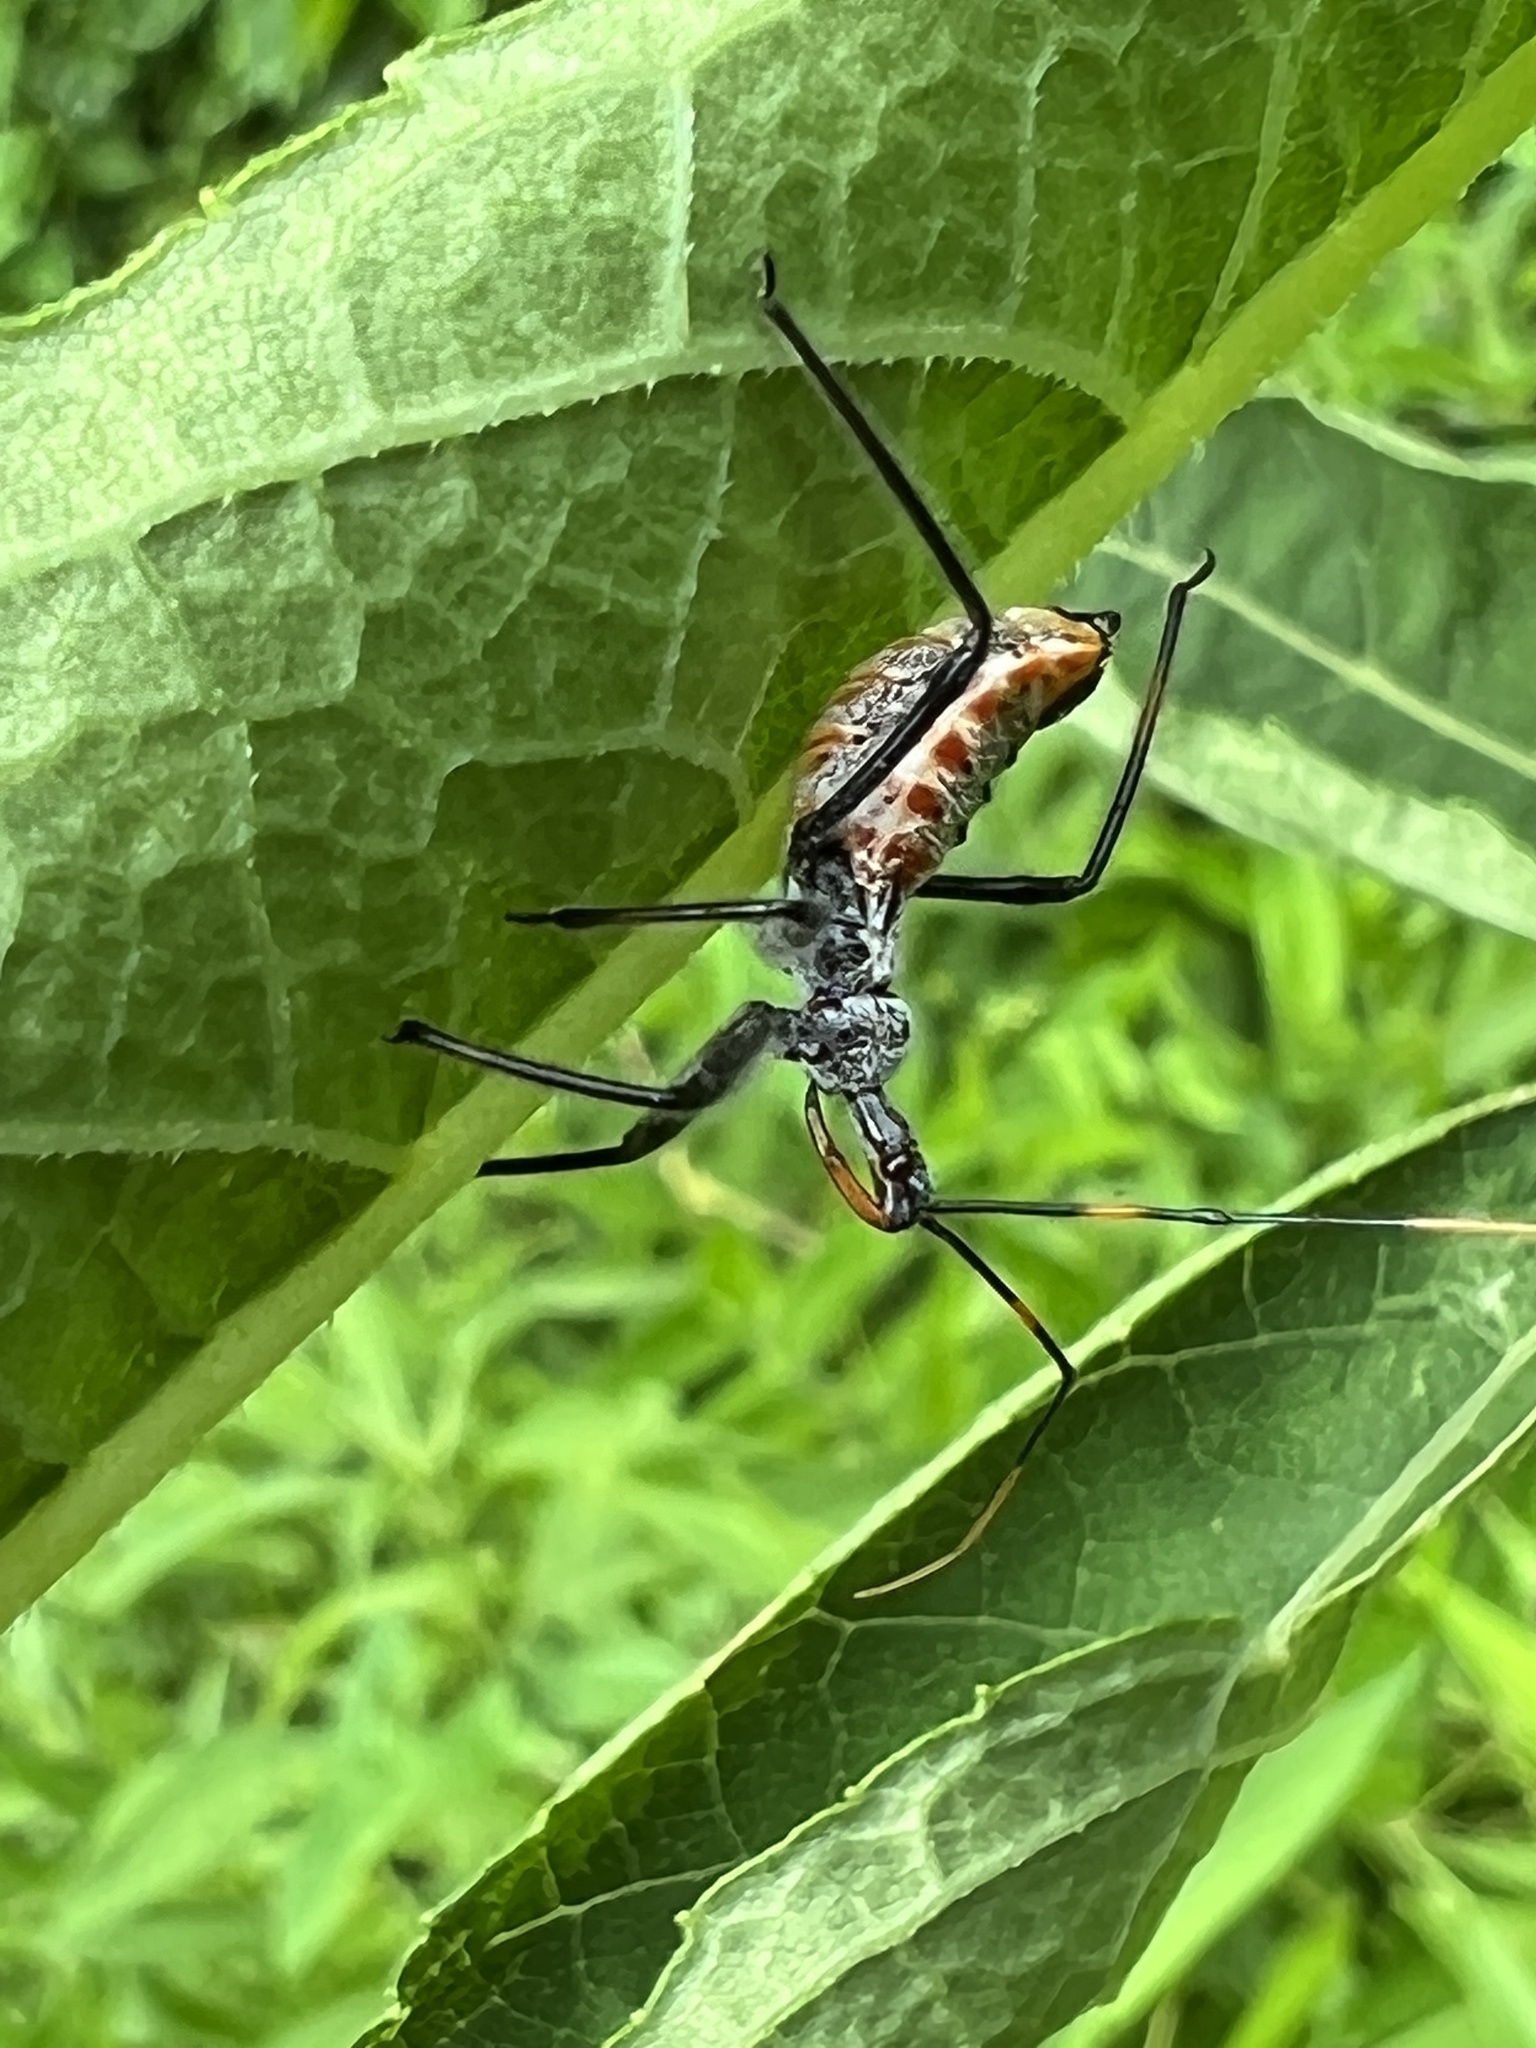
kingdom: Animalia
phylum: Arthropoda
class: Insecta
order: Hemiptera
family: Reduviidae
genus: Arilus
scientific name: Arilus cristatus
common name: North american wheel bug
